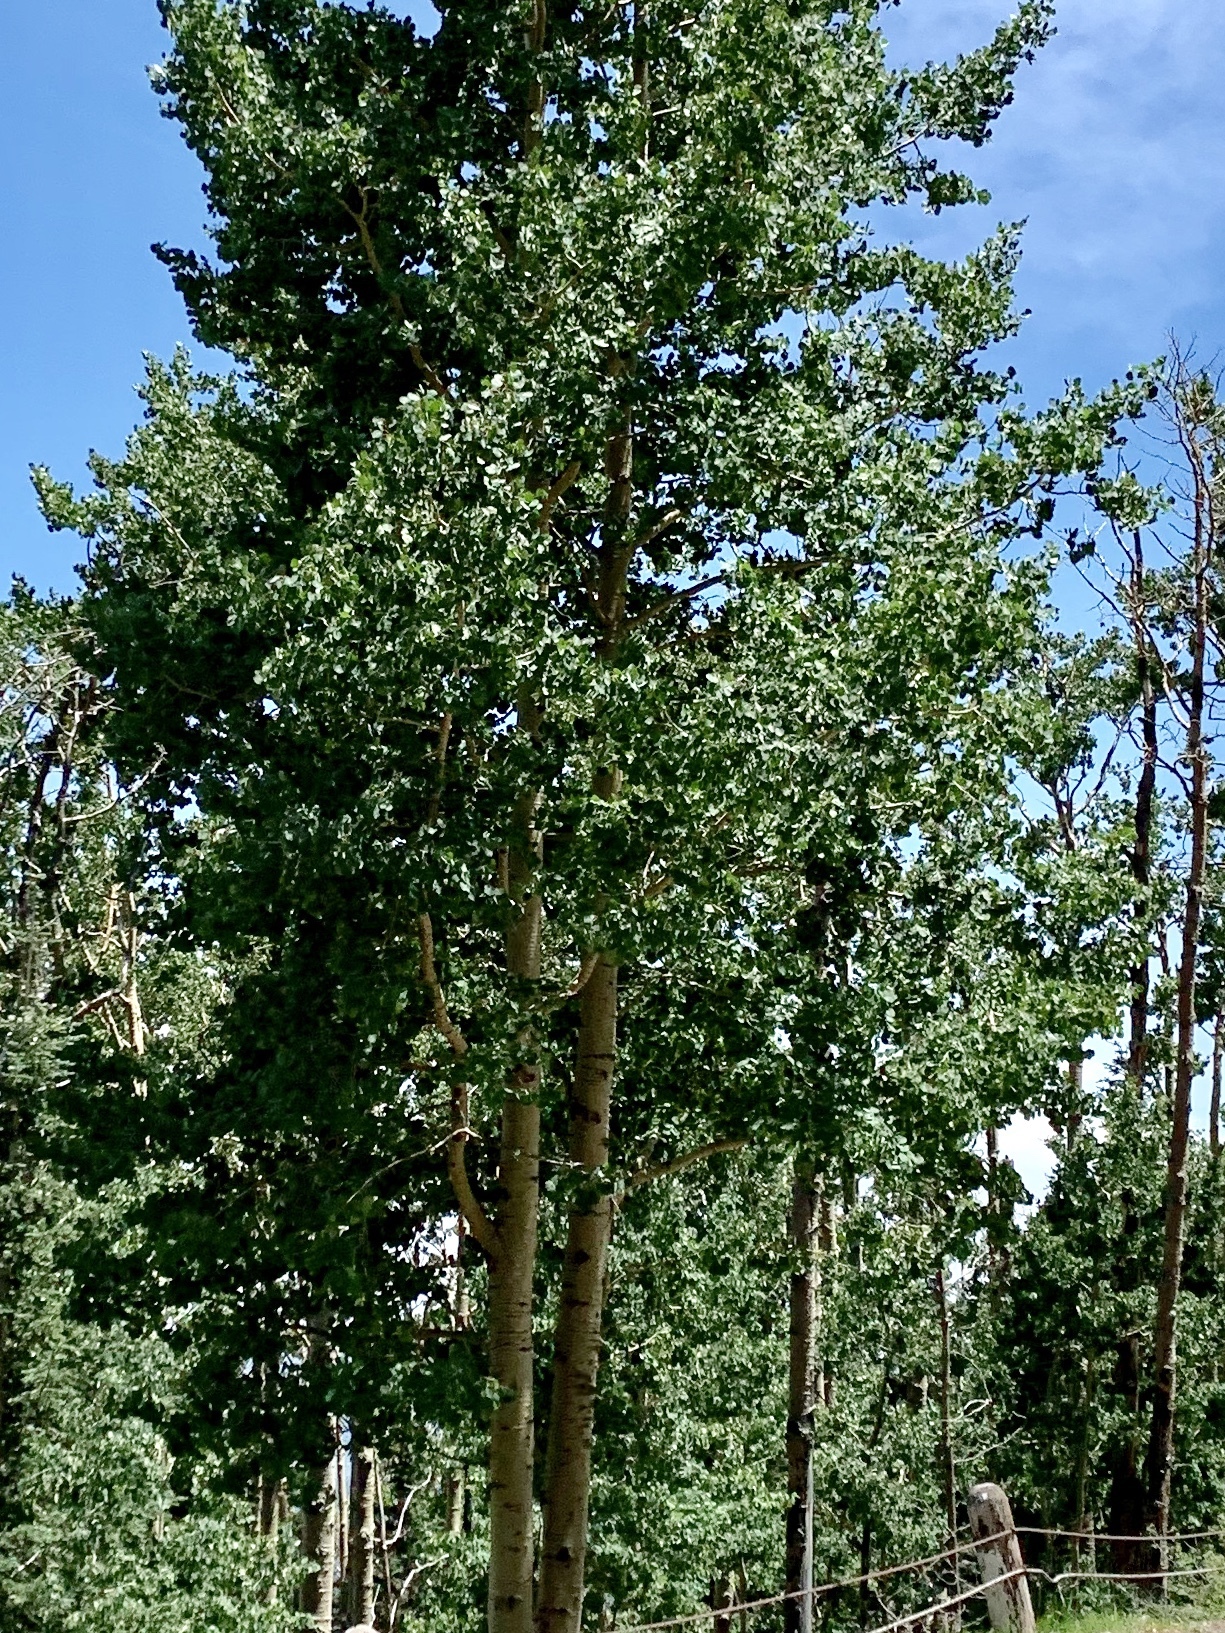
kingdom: Plantae
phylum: Tracheophyta
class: Magnoliopsida
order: Malpighiales
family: Salicaceae
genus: Populus
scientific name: Populus tremuloides
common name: Quaking aspen
